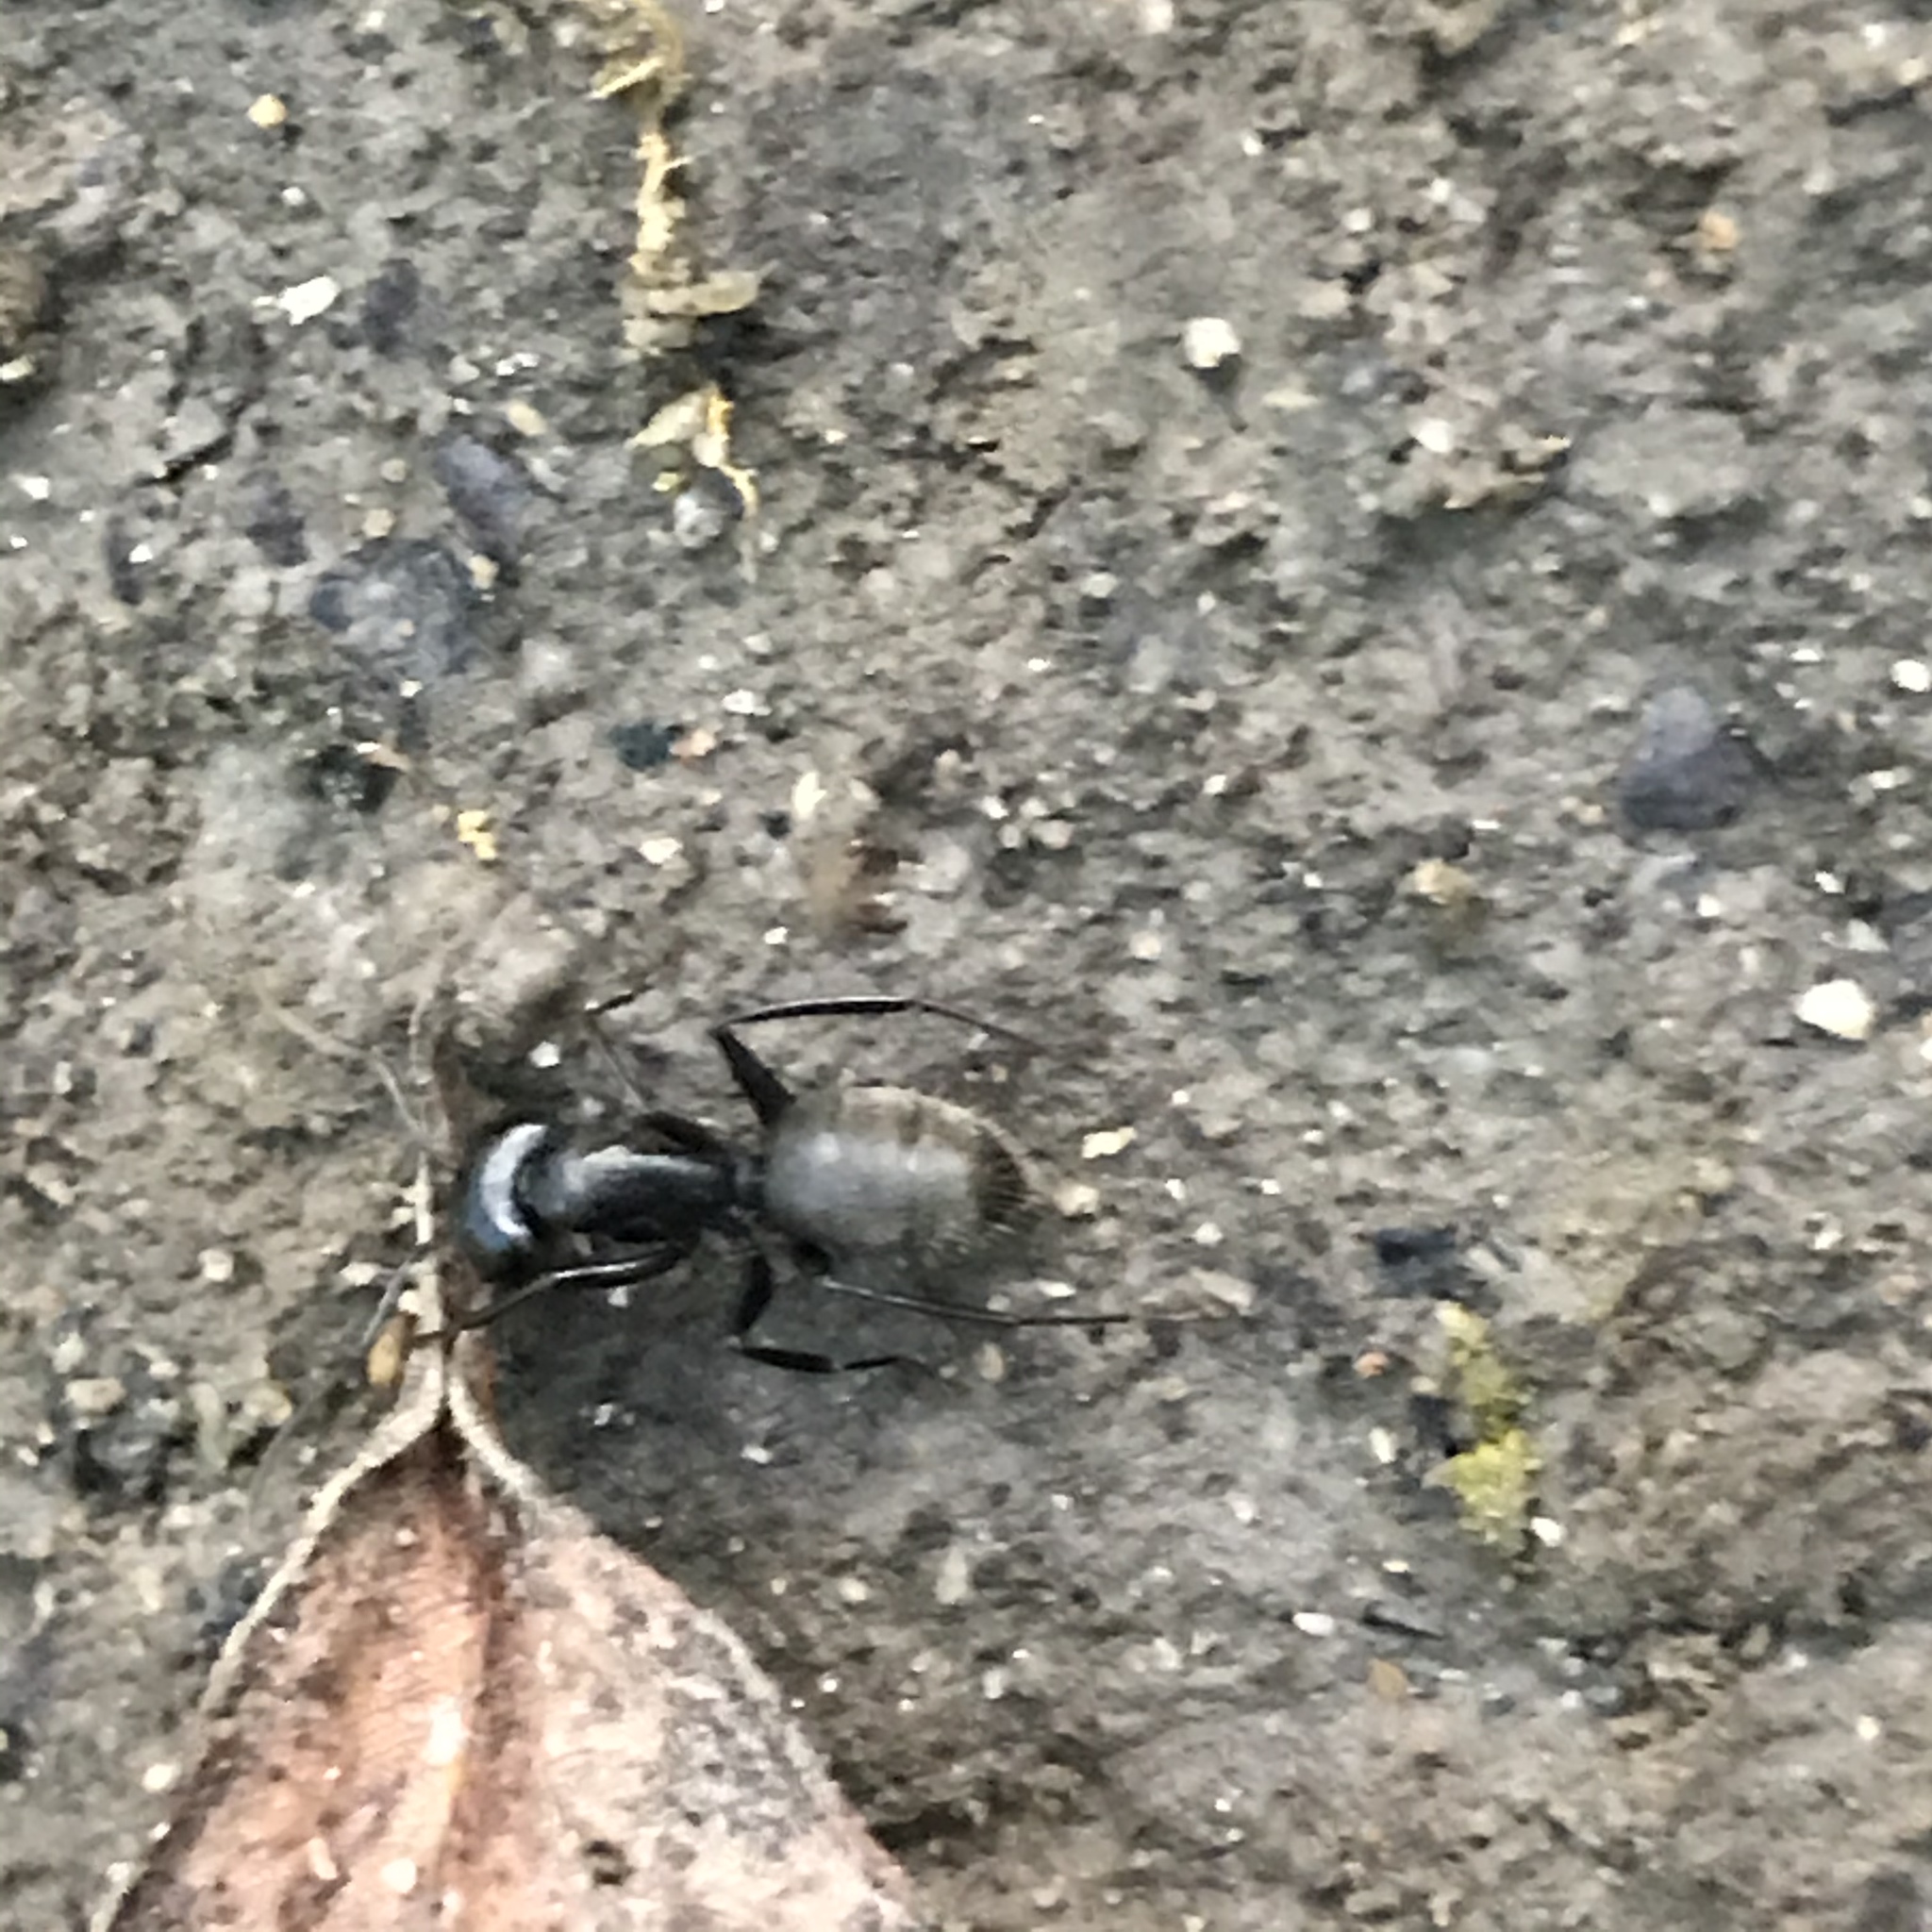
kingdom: Animalia
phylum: Arthropoda
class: Insecta
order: Hymenoptera
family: Formicidae
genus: Camponotus
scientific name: Camponotus pennsylvanicus
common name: Black carpenter ant
